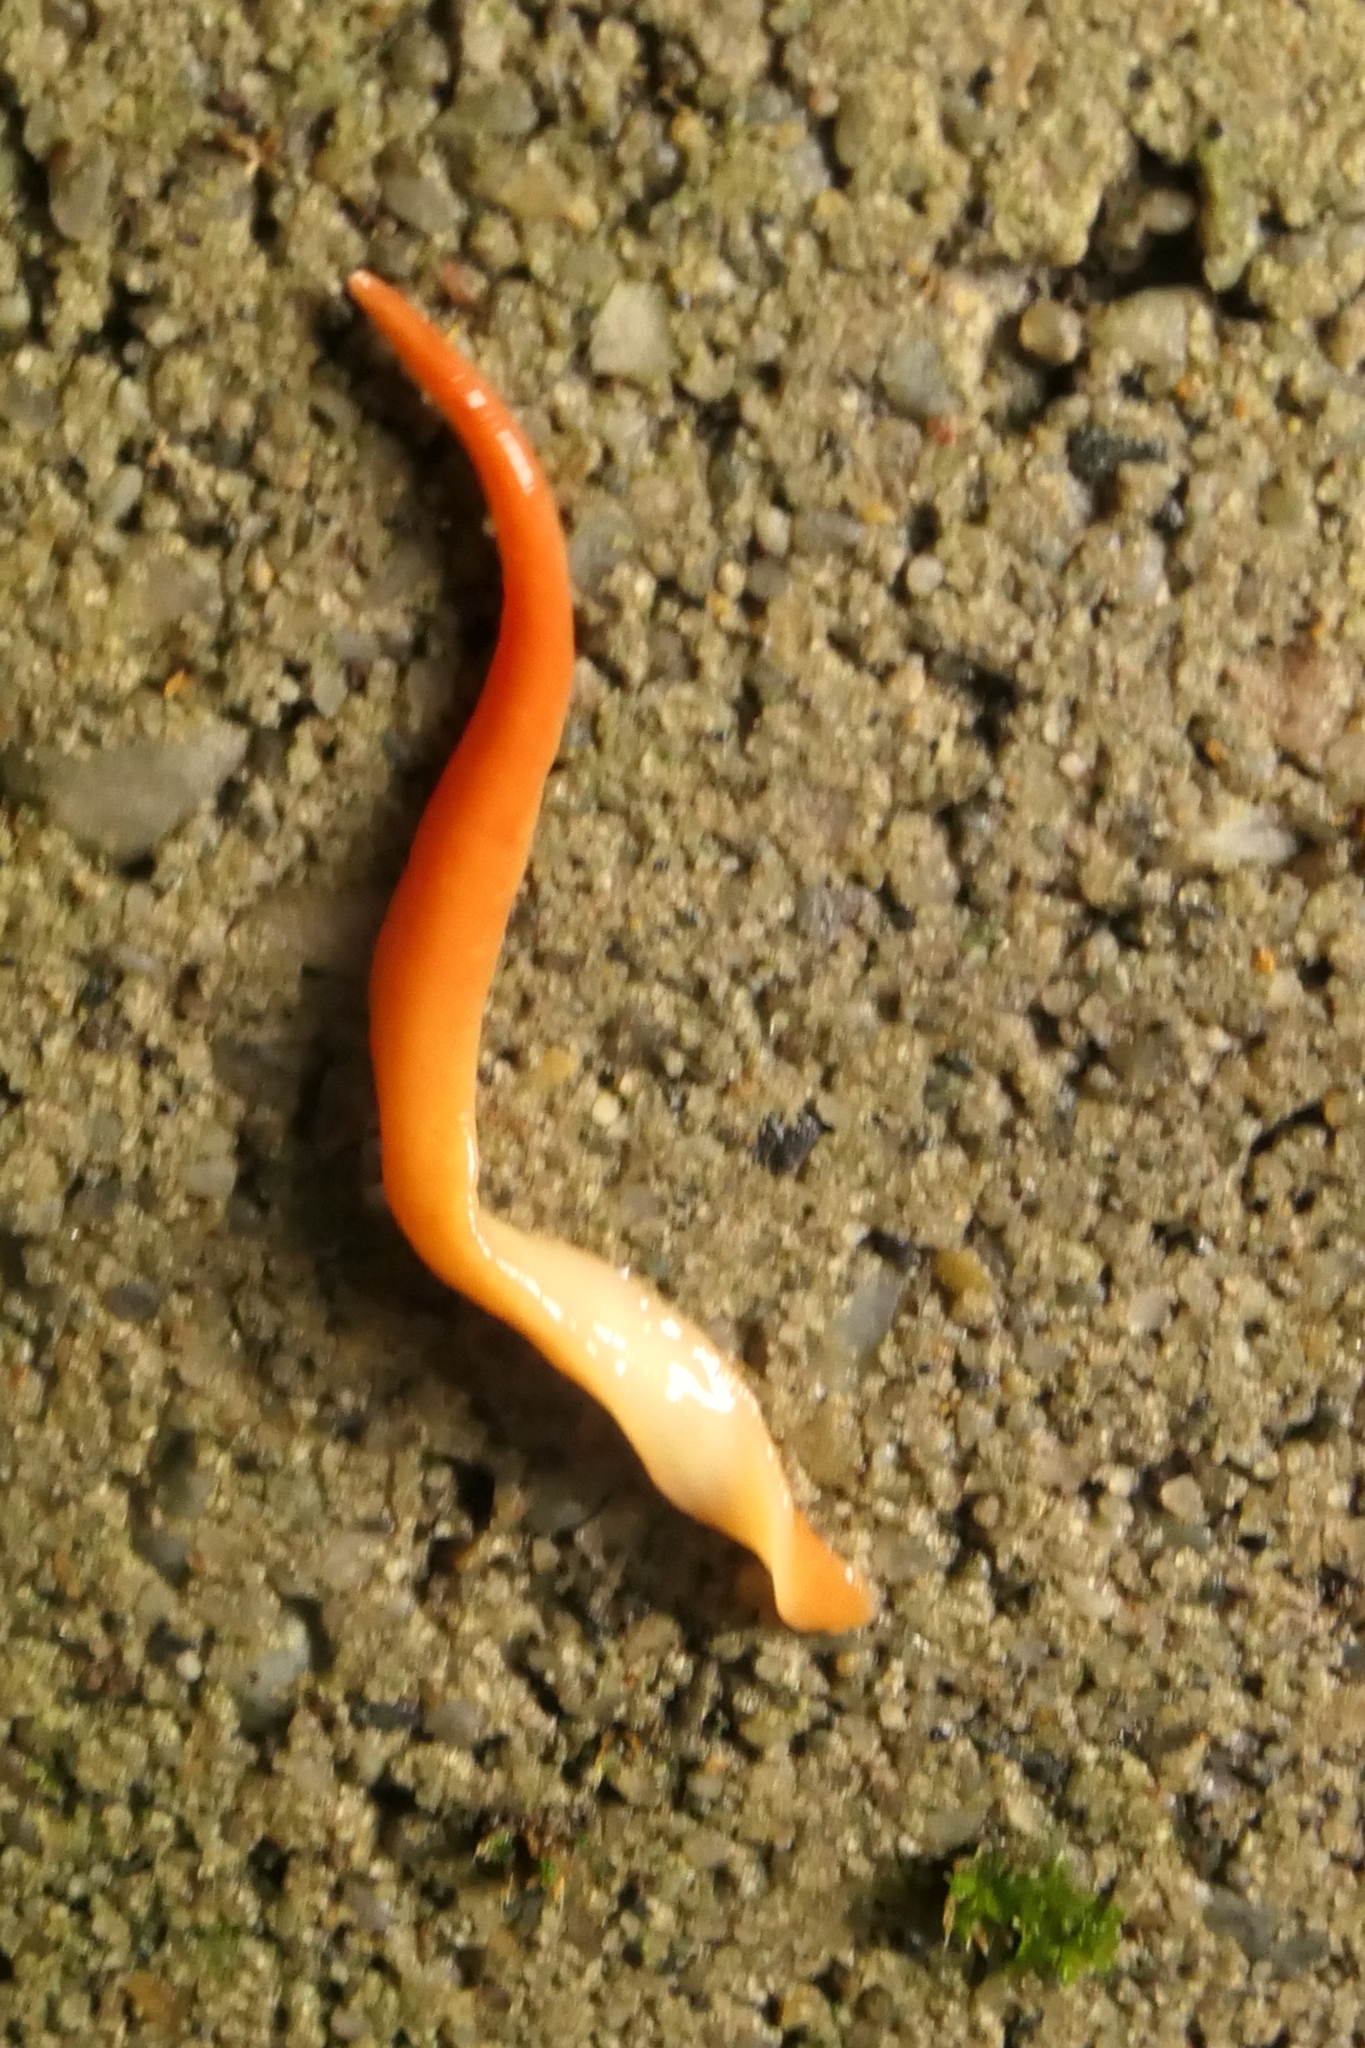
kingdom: Animalia
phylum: Platyhelminthes
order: Tricladida
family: Geoplanidae
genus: Australoplana
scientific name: Australoplana sanguinea
